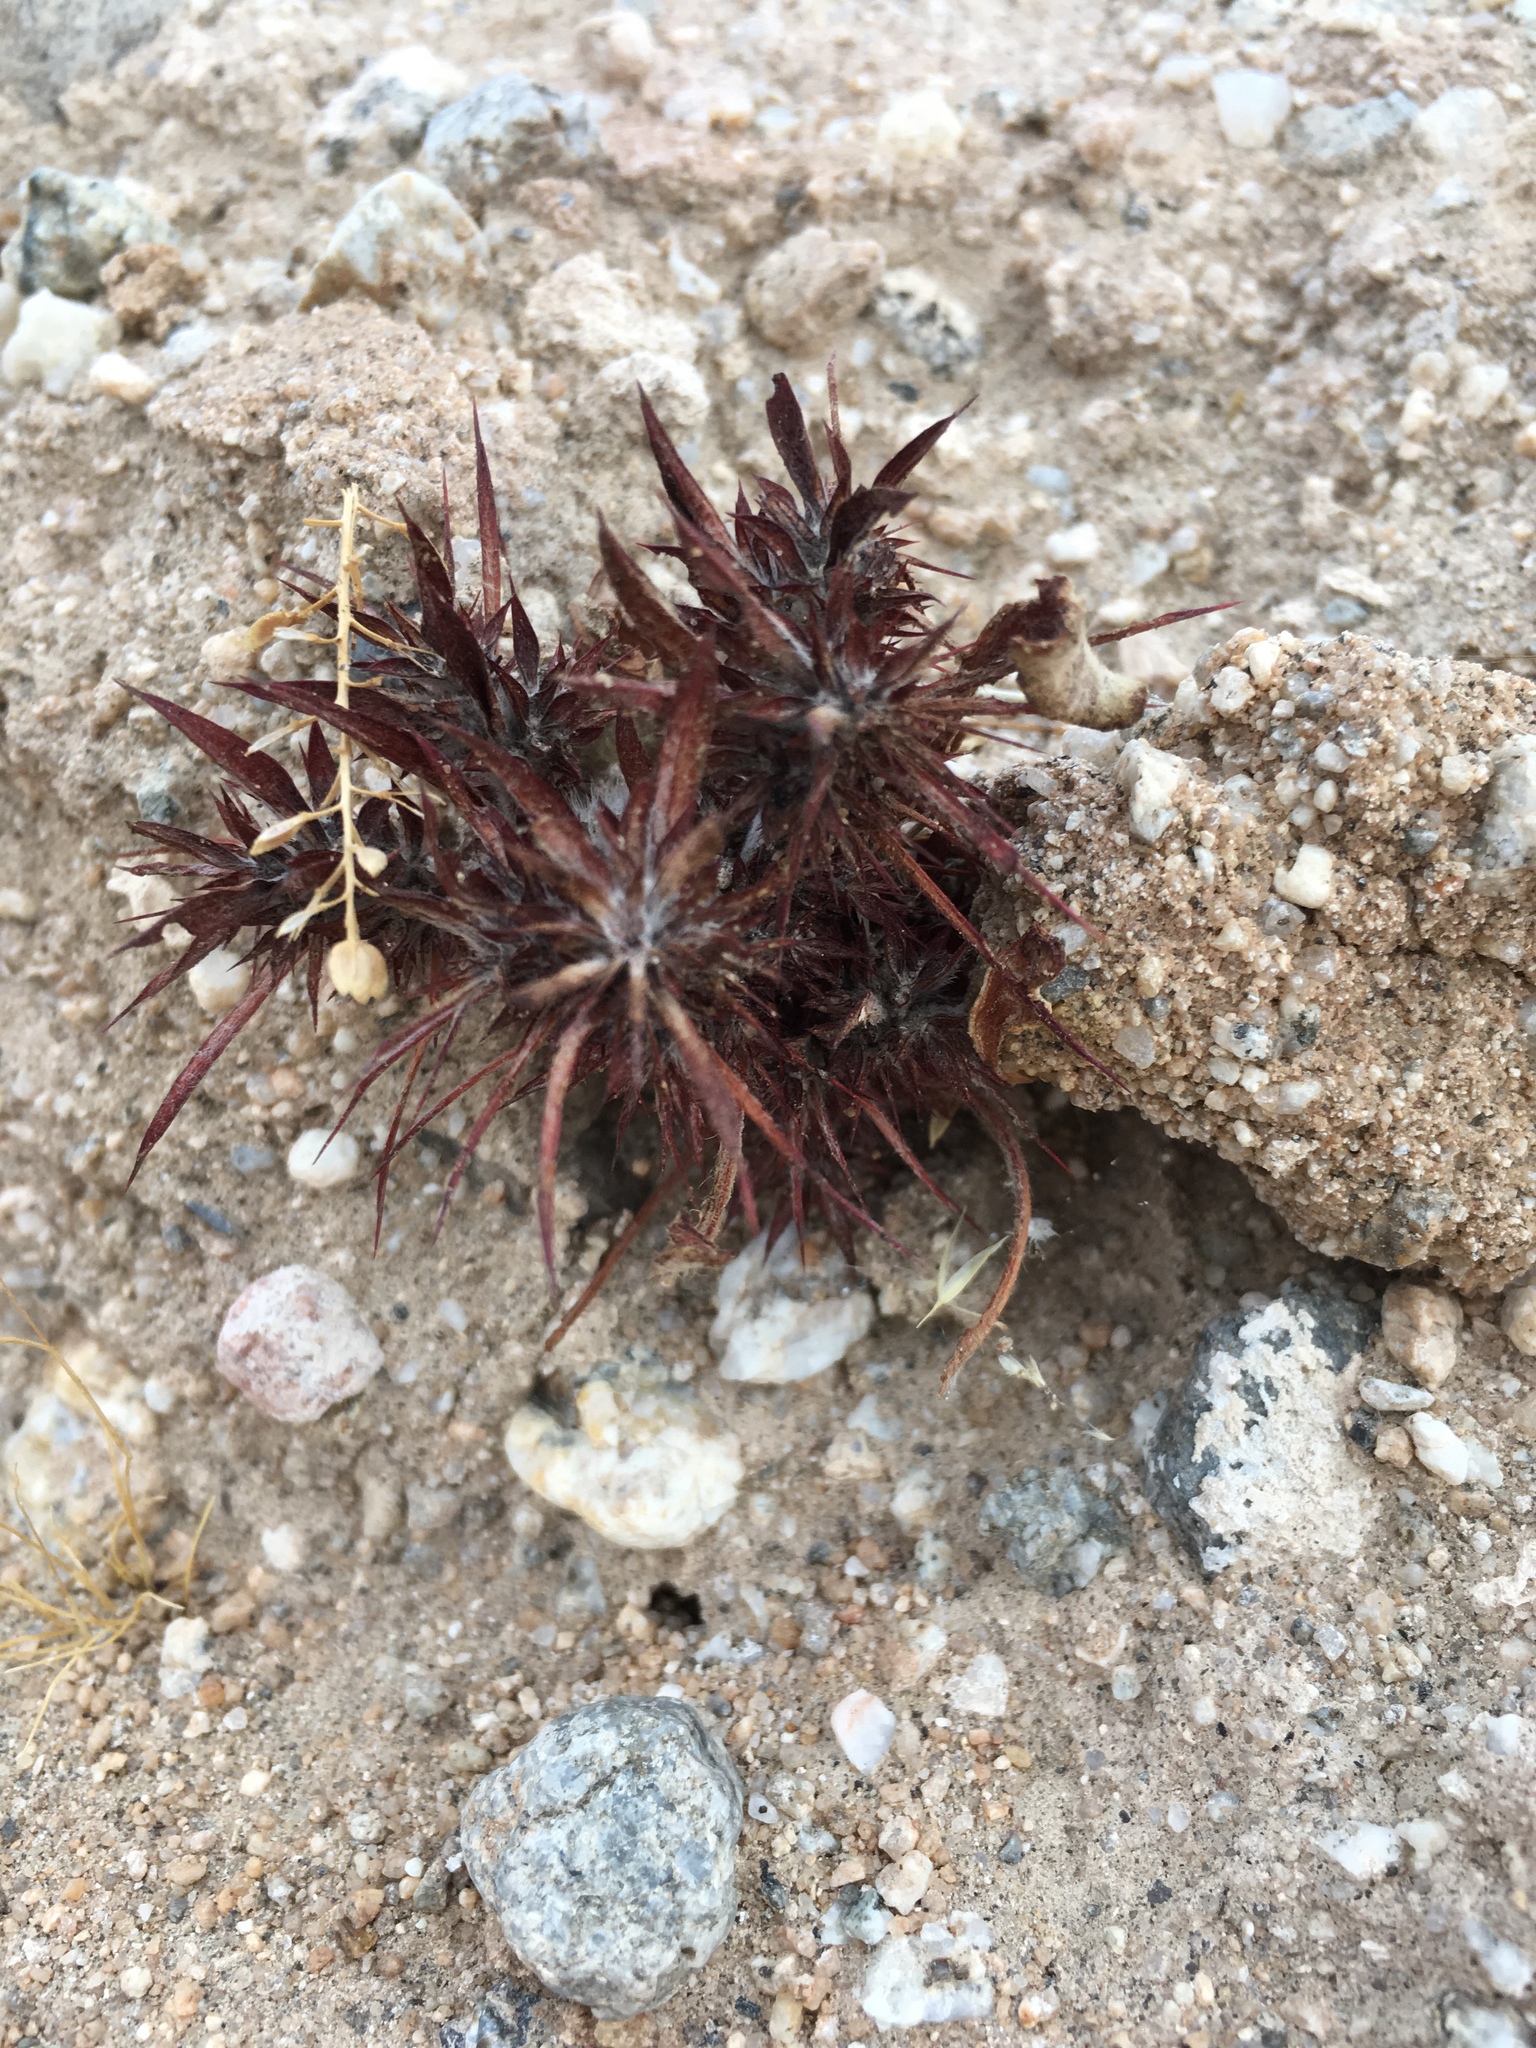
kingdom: Plantae
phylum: Tracheophyta
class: Magnoliopsida
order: Caryophyllales
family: Polygonaceae
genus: Chorizanthe
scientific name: Chorizanthe rigida
